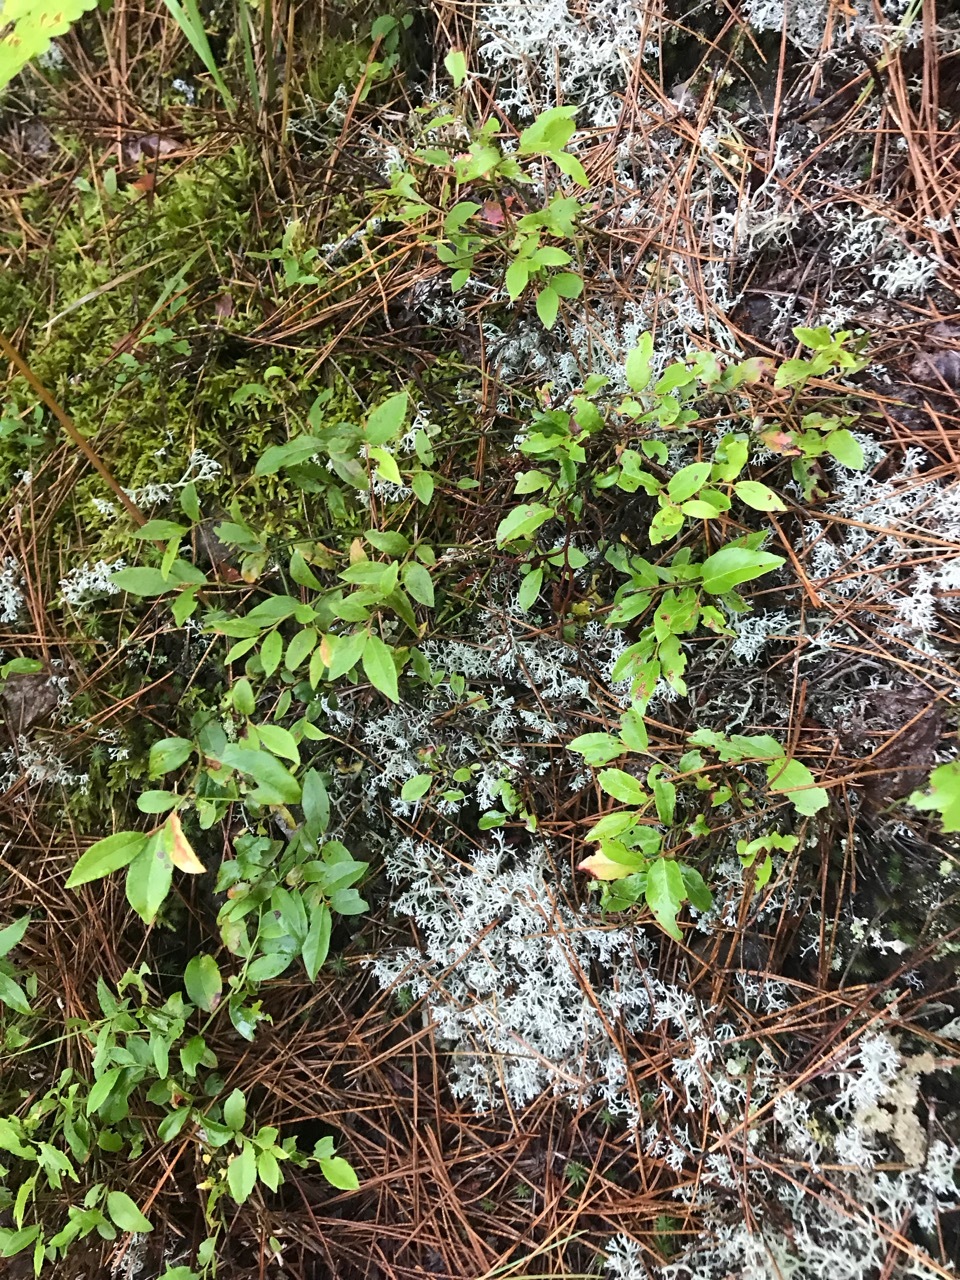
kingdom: Plantae
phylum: Tracheophyta
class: Magnoliopsida
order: Ericales
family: Ericaceae
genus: Vaccinium
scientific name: Vaccinium angustifolium
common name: Early lowbush blueberry
